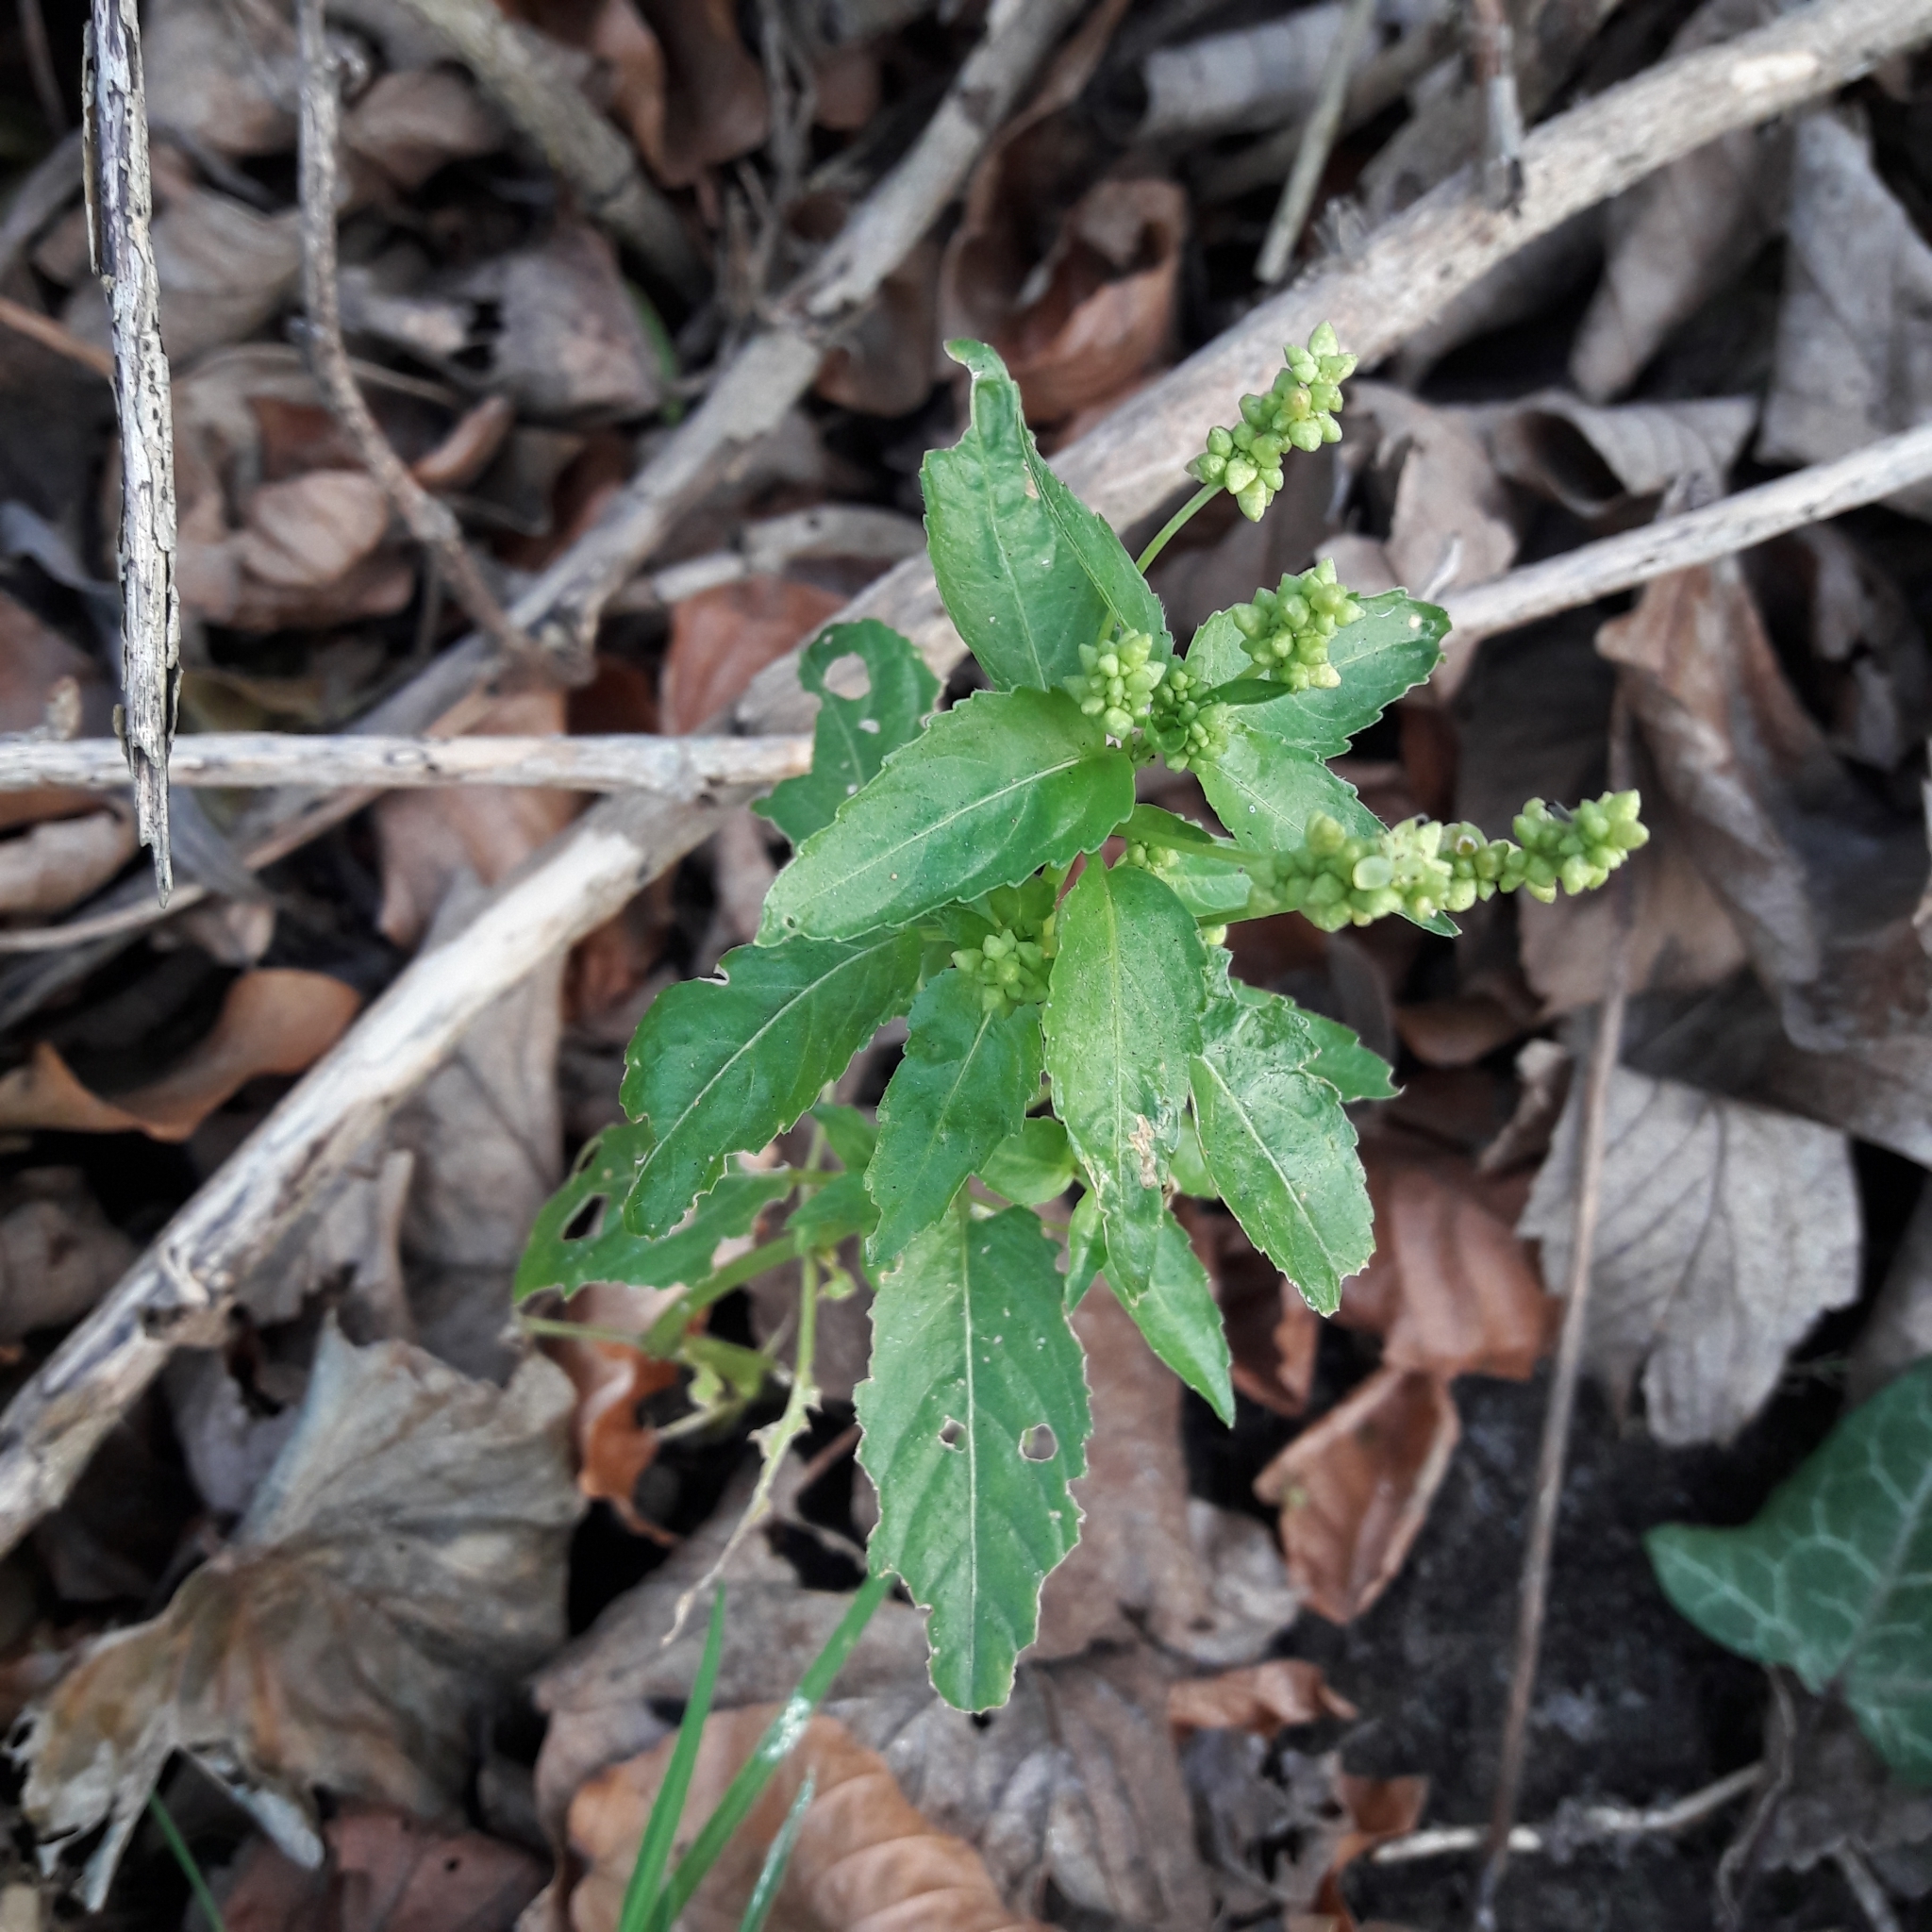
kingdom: Plantae
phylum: Tracheophyta
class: Magnoliopsida
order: Malpighiales
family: Euphorbiaceae
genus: Mercurialis
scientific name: Mercurialis annua
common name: Annual mercury
